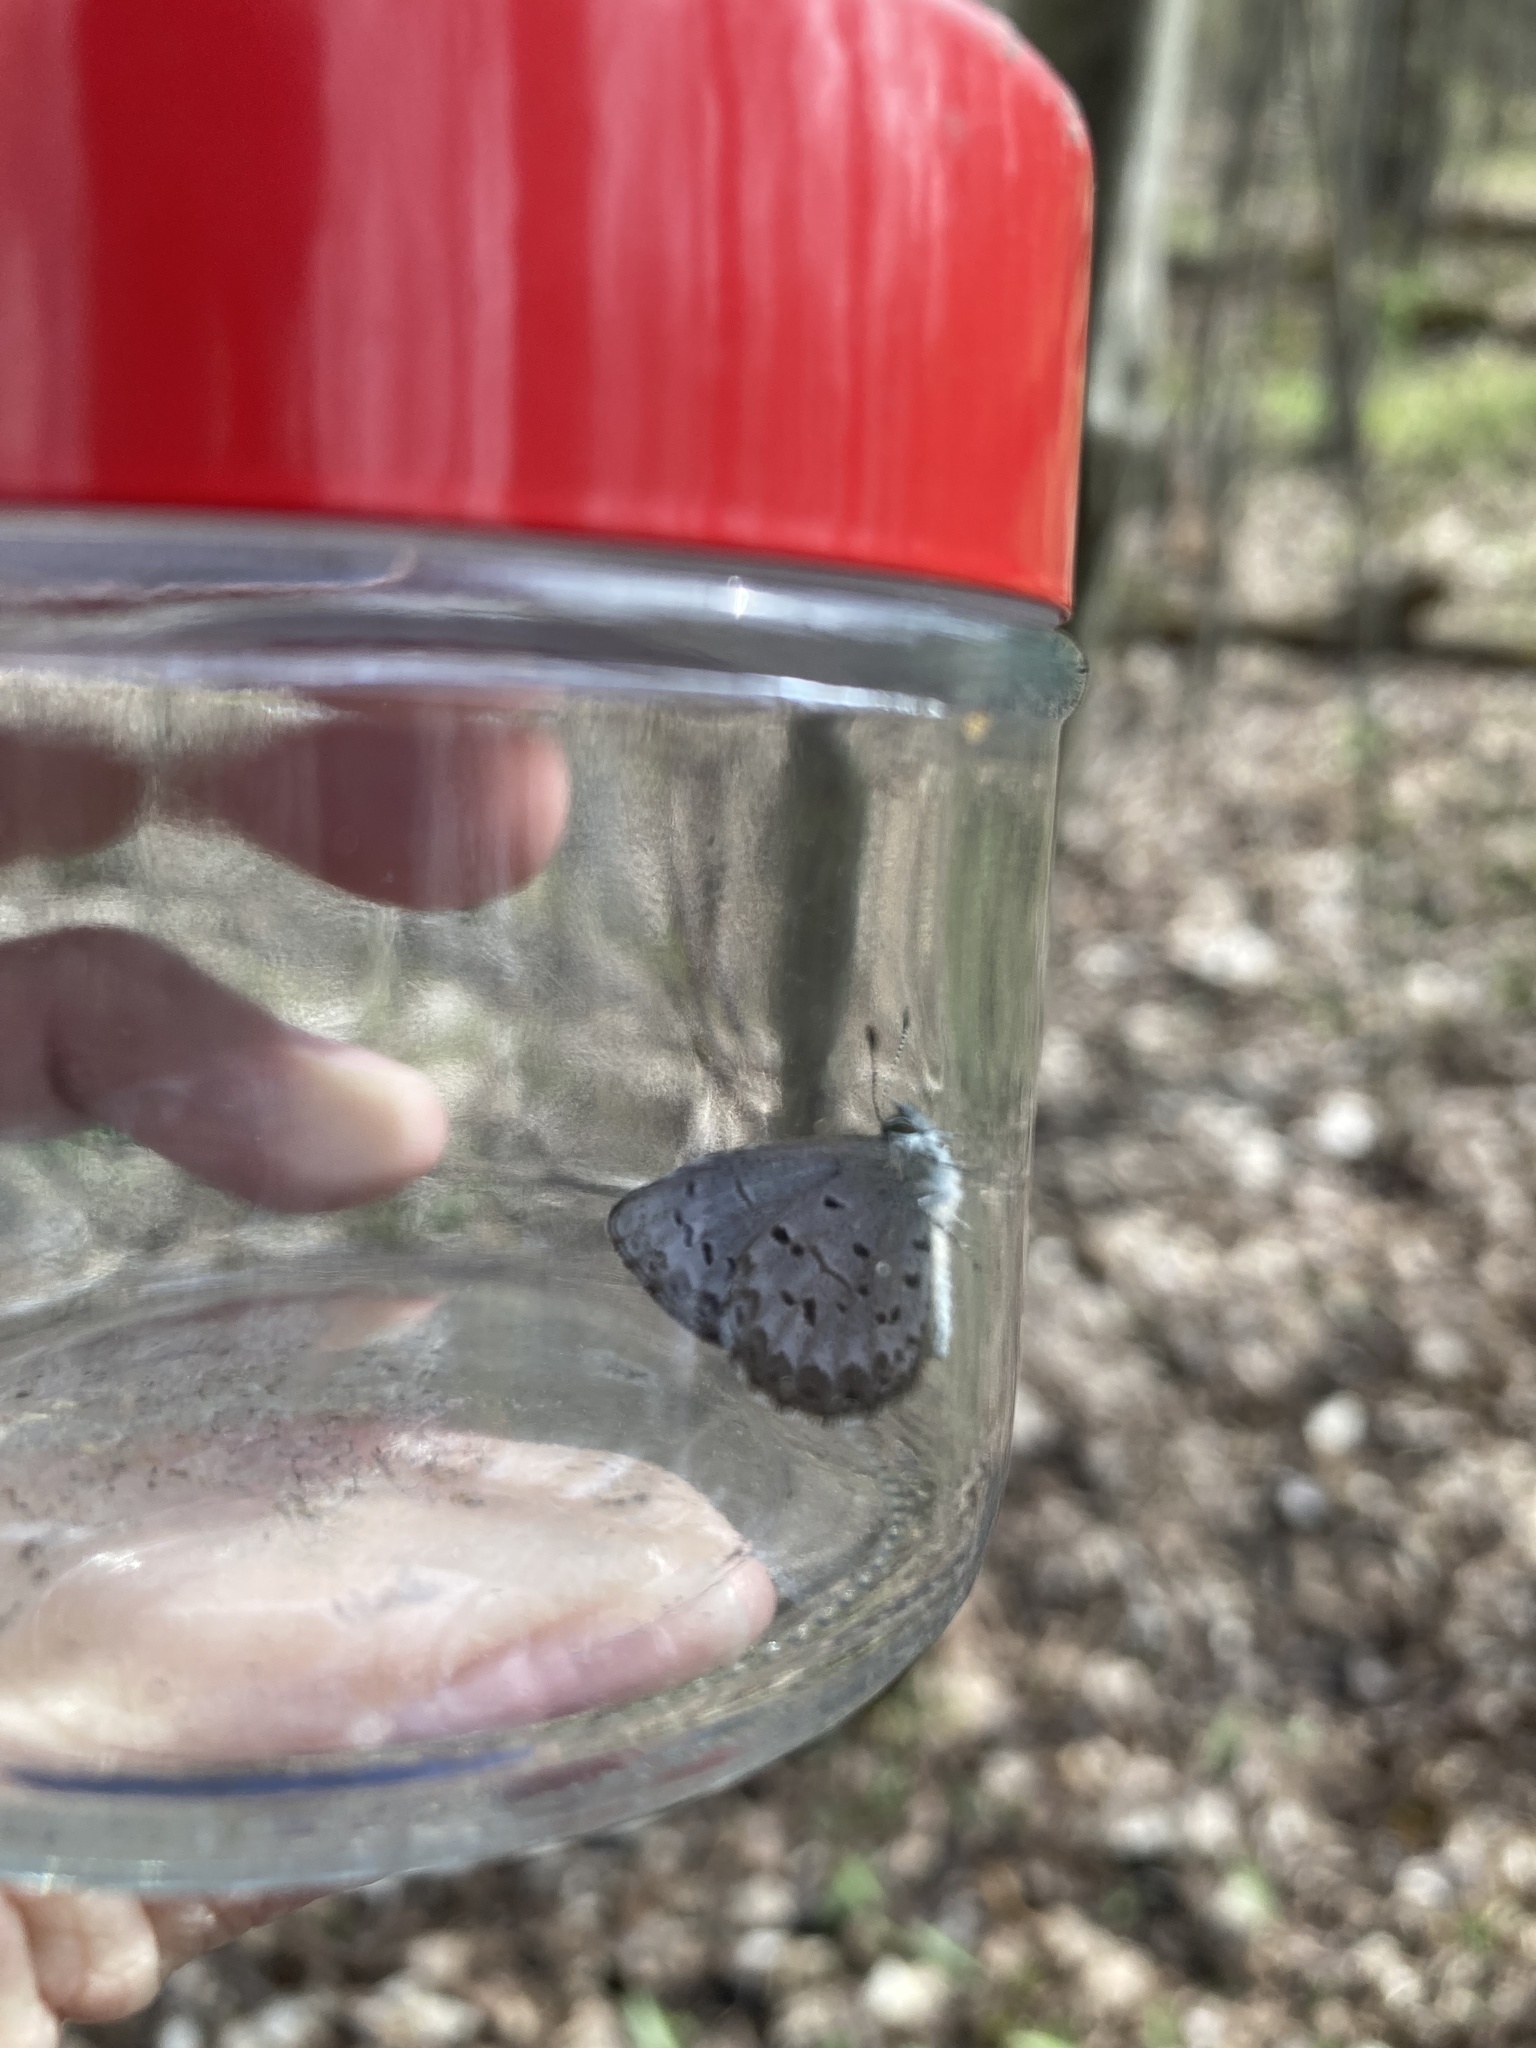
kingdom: Animalia
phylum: Arthropoda
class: Insecta
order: Lepidoptera
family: Lycaenidae
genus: Celastrina
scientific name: Celastrina lucia
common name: Lucia azure
